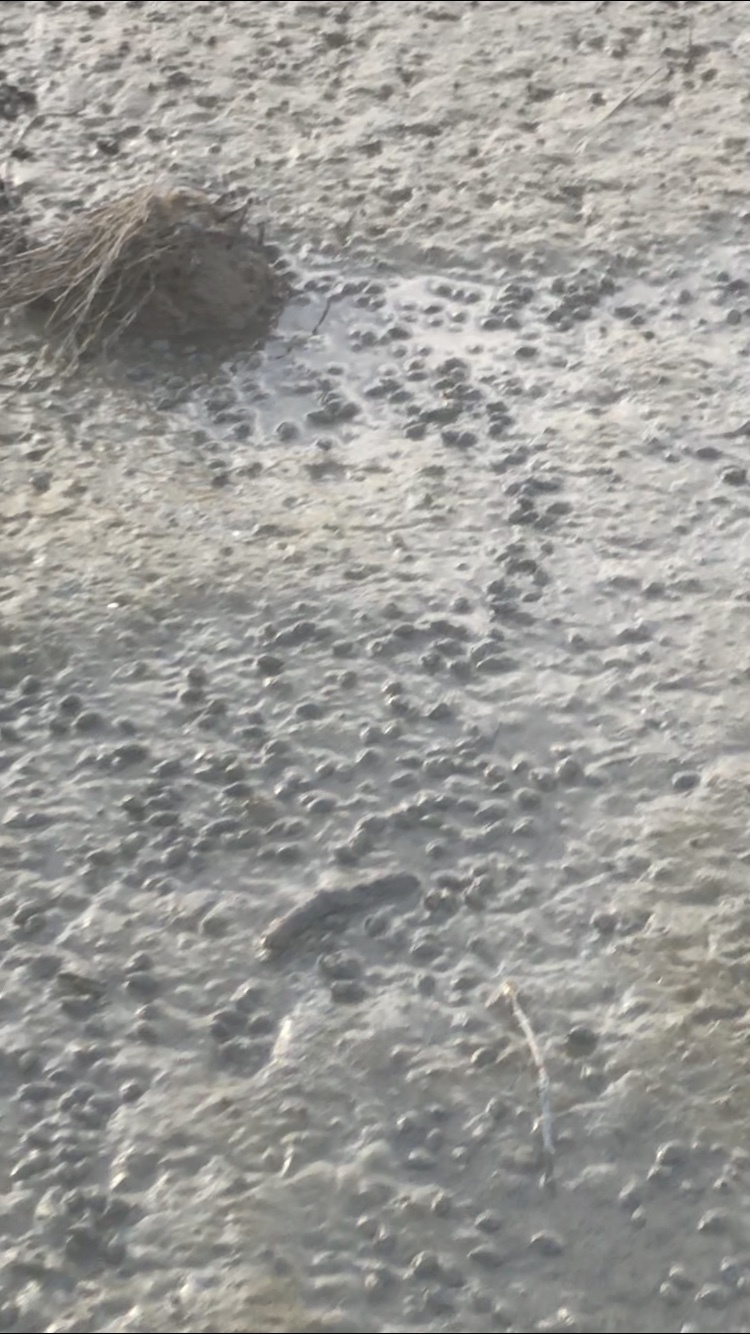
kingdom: Animalia
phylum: Mollusca
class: Gastropoda
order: Neogastropoda
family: Nassariidae
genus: Ilyanassa
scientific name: Ilyanassa obsoleta
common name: Eastern mudsnail
